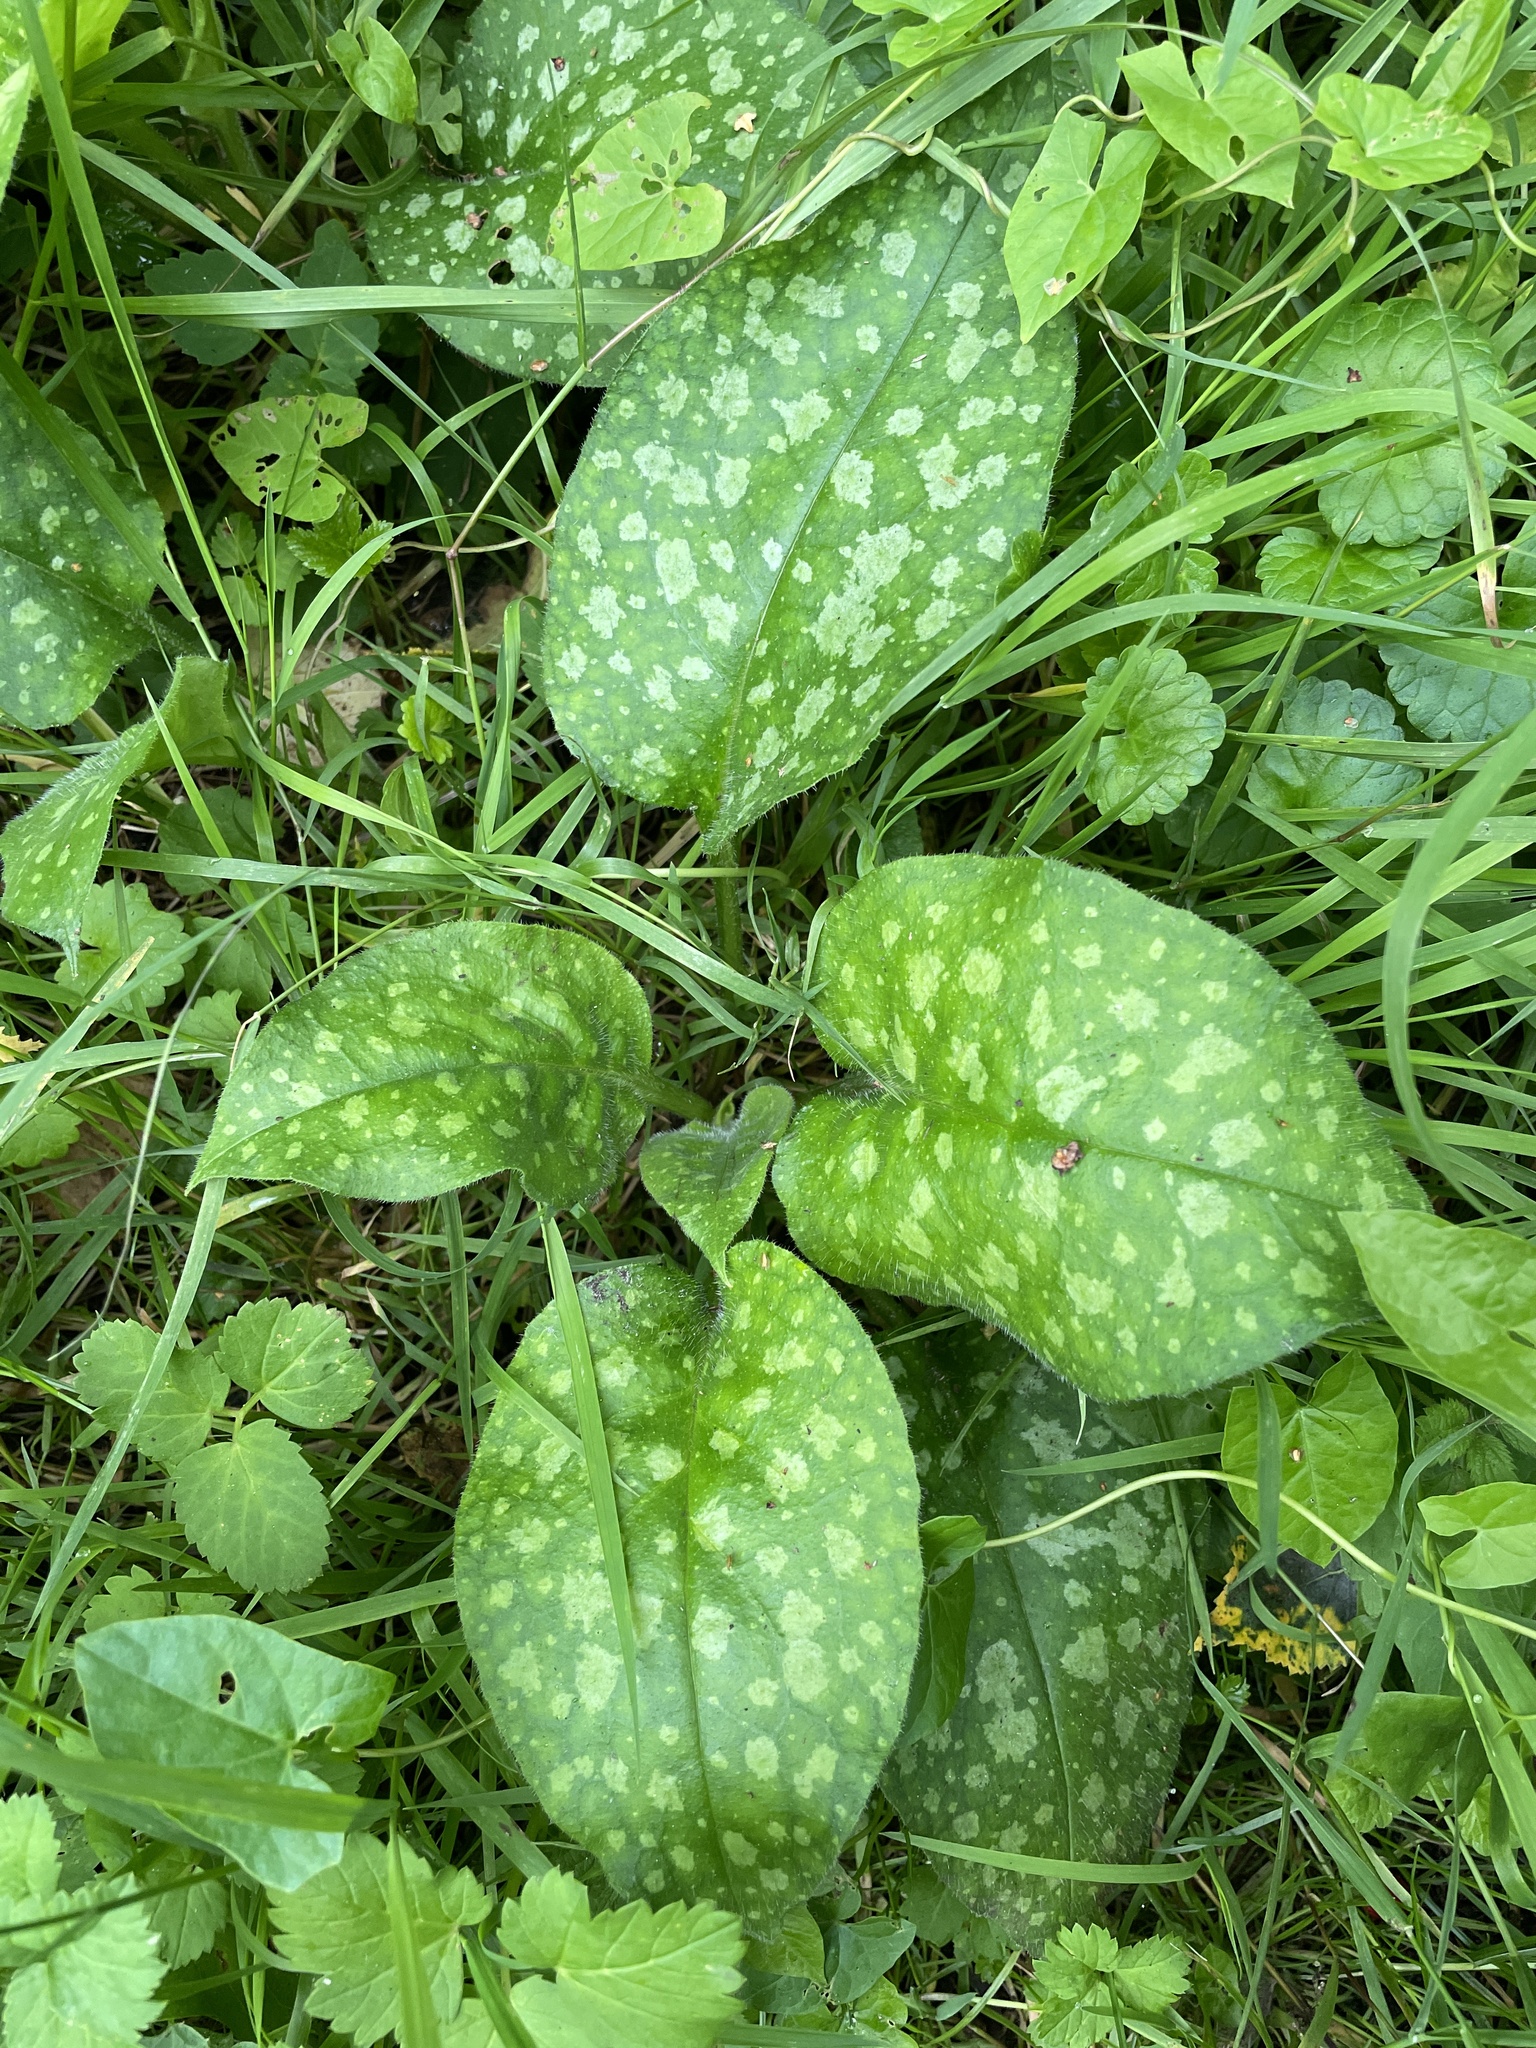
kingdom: Plantae
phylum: Tracheophyta
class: Magnoliopsida
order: Boraginales
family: Boraginaceae
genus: Pulmonaria
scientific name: Pulmonaria officinalis
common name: Lungwort
